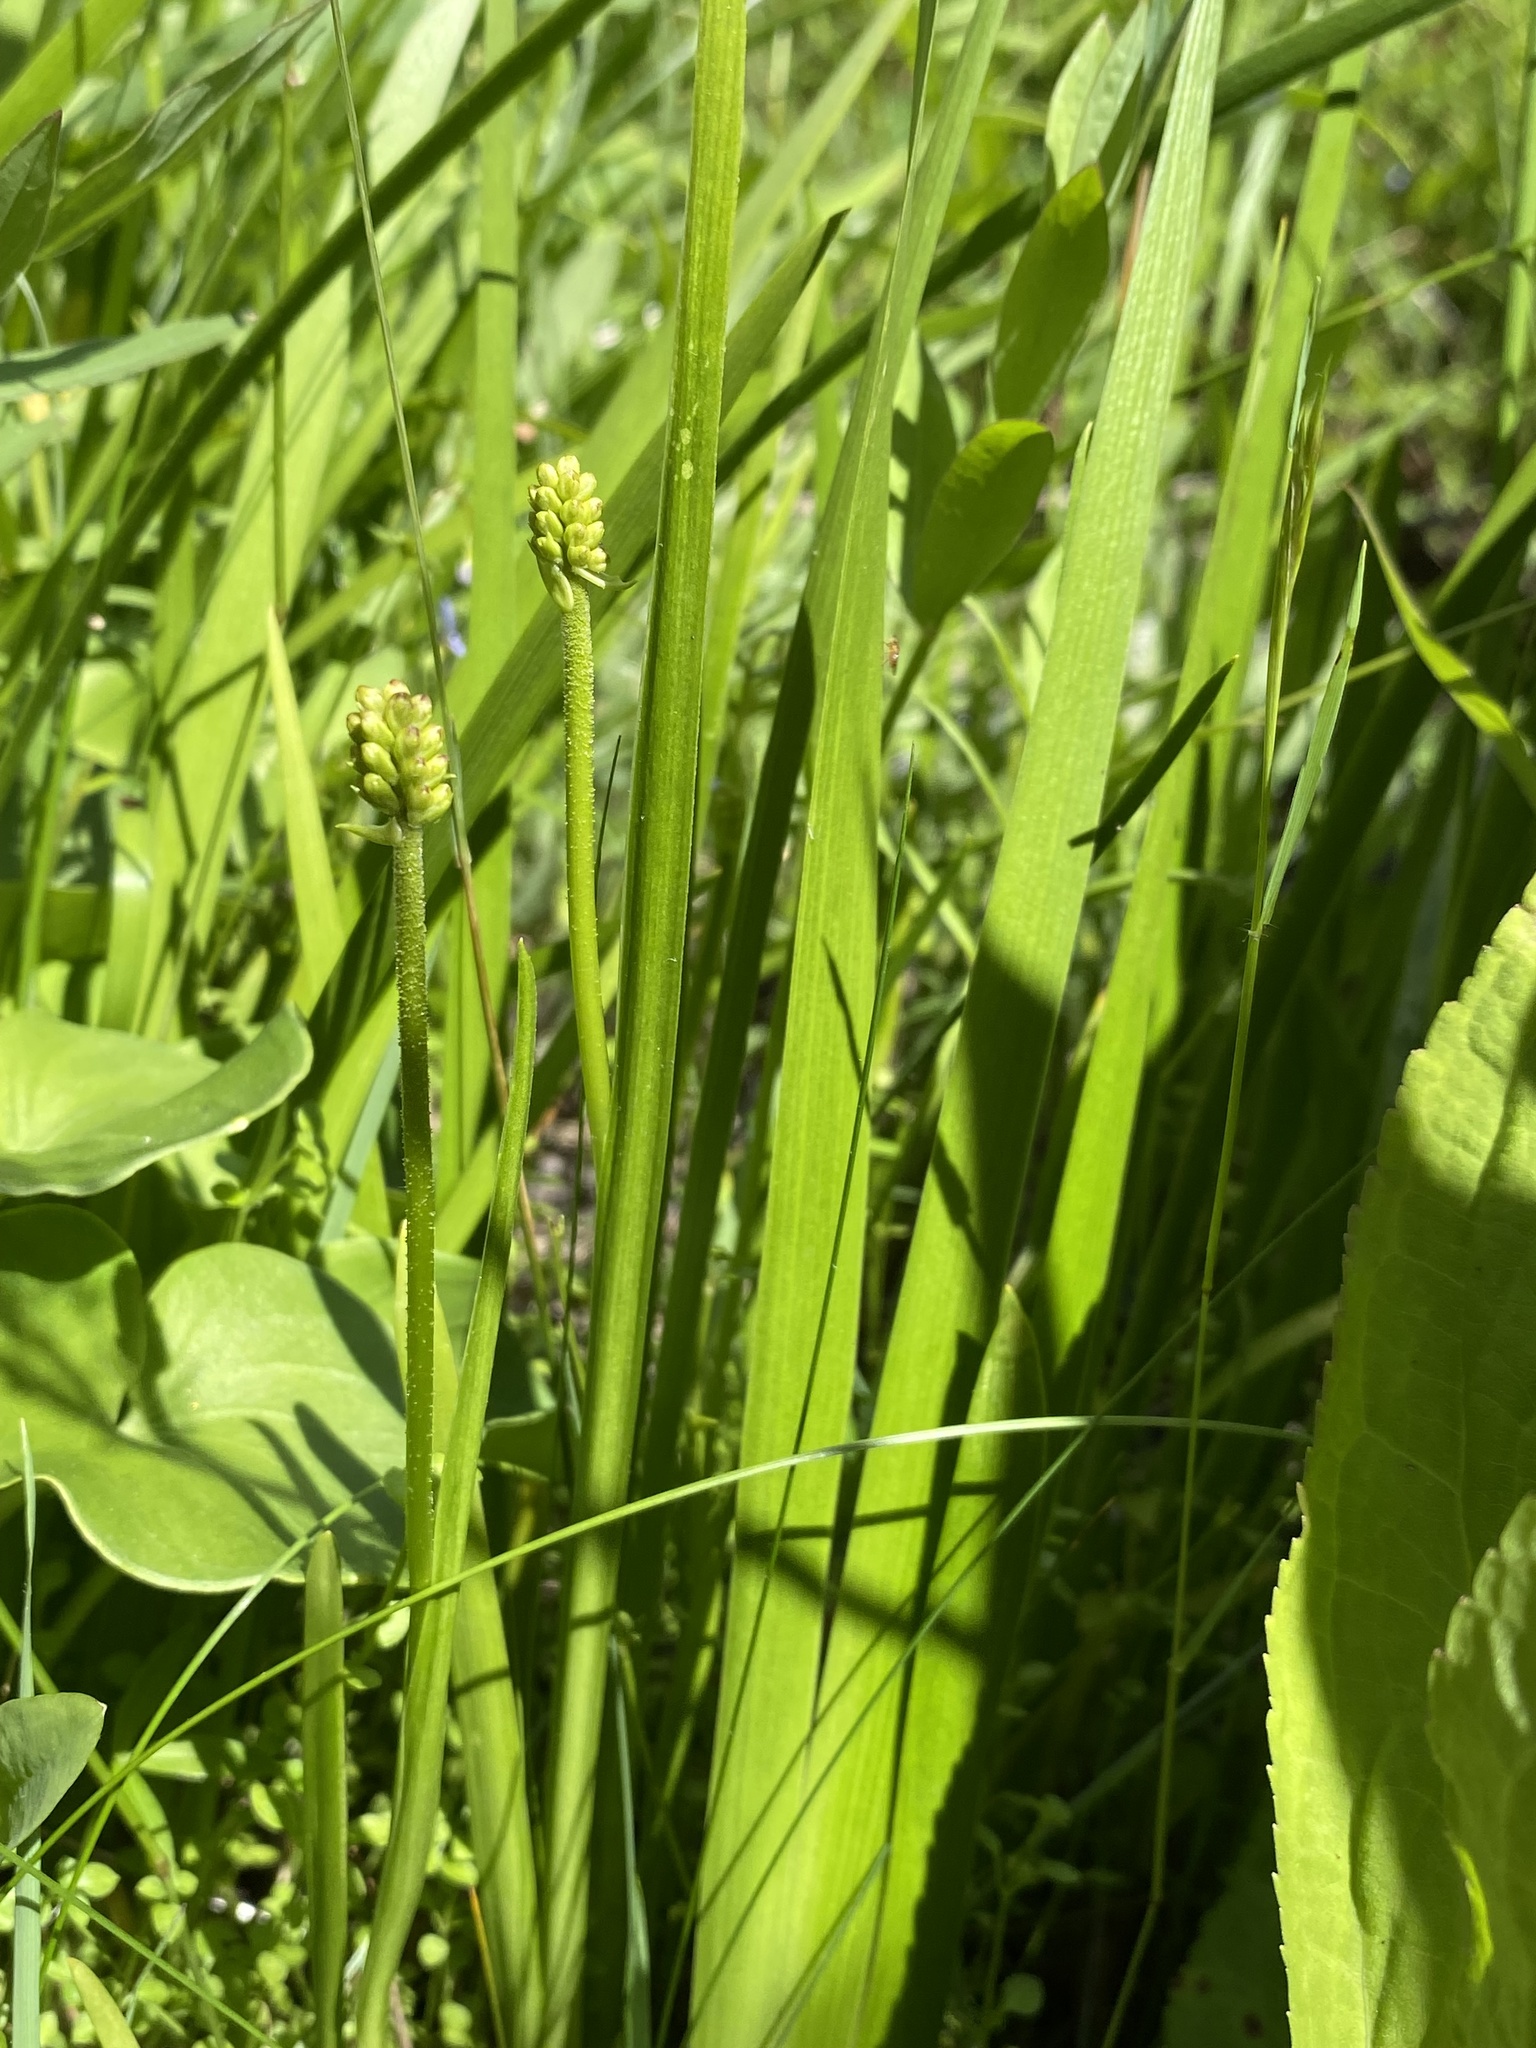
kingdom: Plantae
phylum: Tracheophyta
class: Liliopsida
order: Alismatales
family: Tofieldiaceae
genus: Triantha
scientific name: Triantha glutinosa
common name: Glutinous tofieldia
